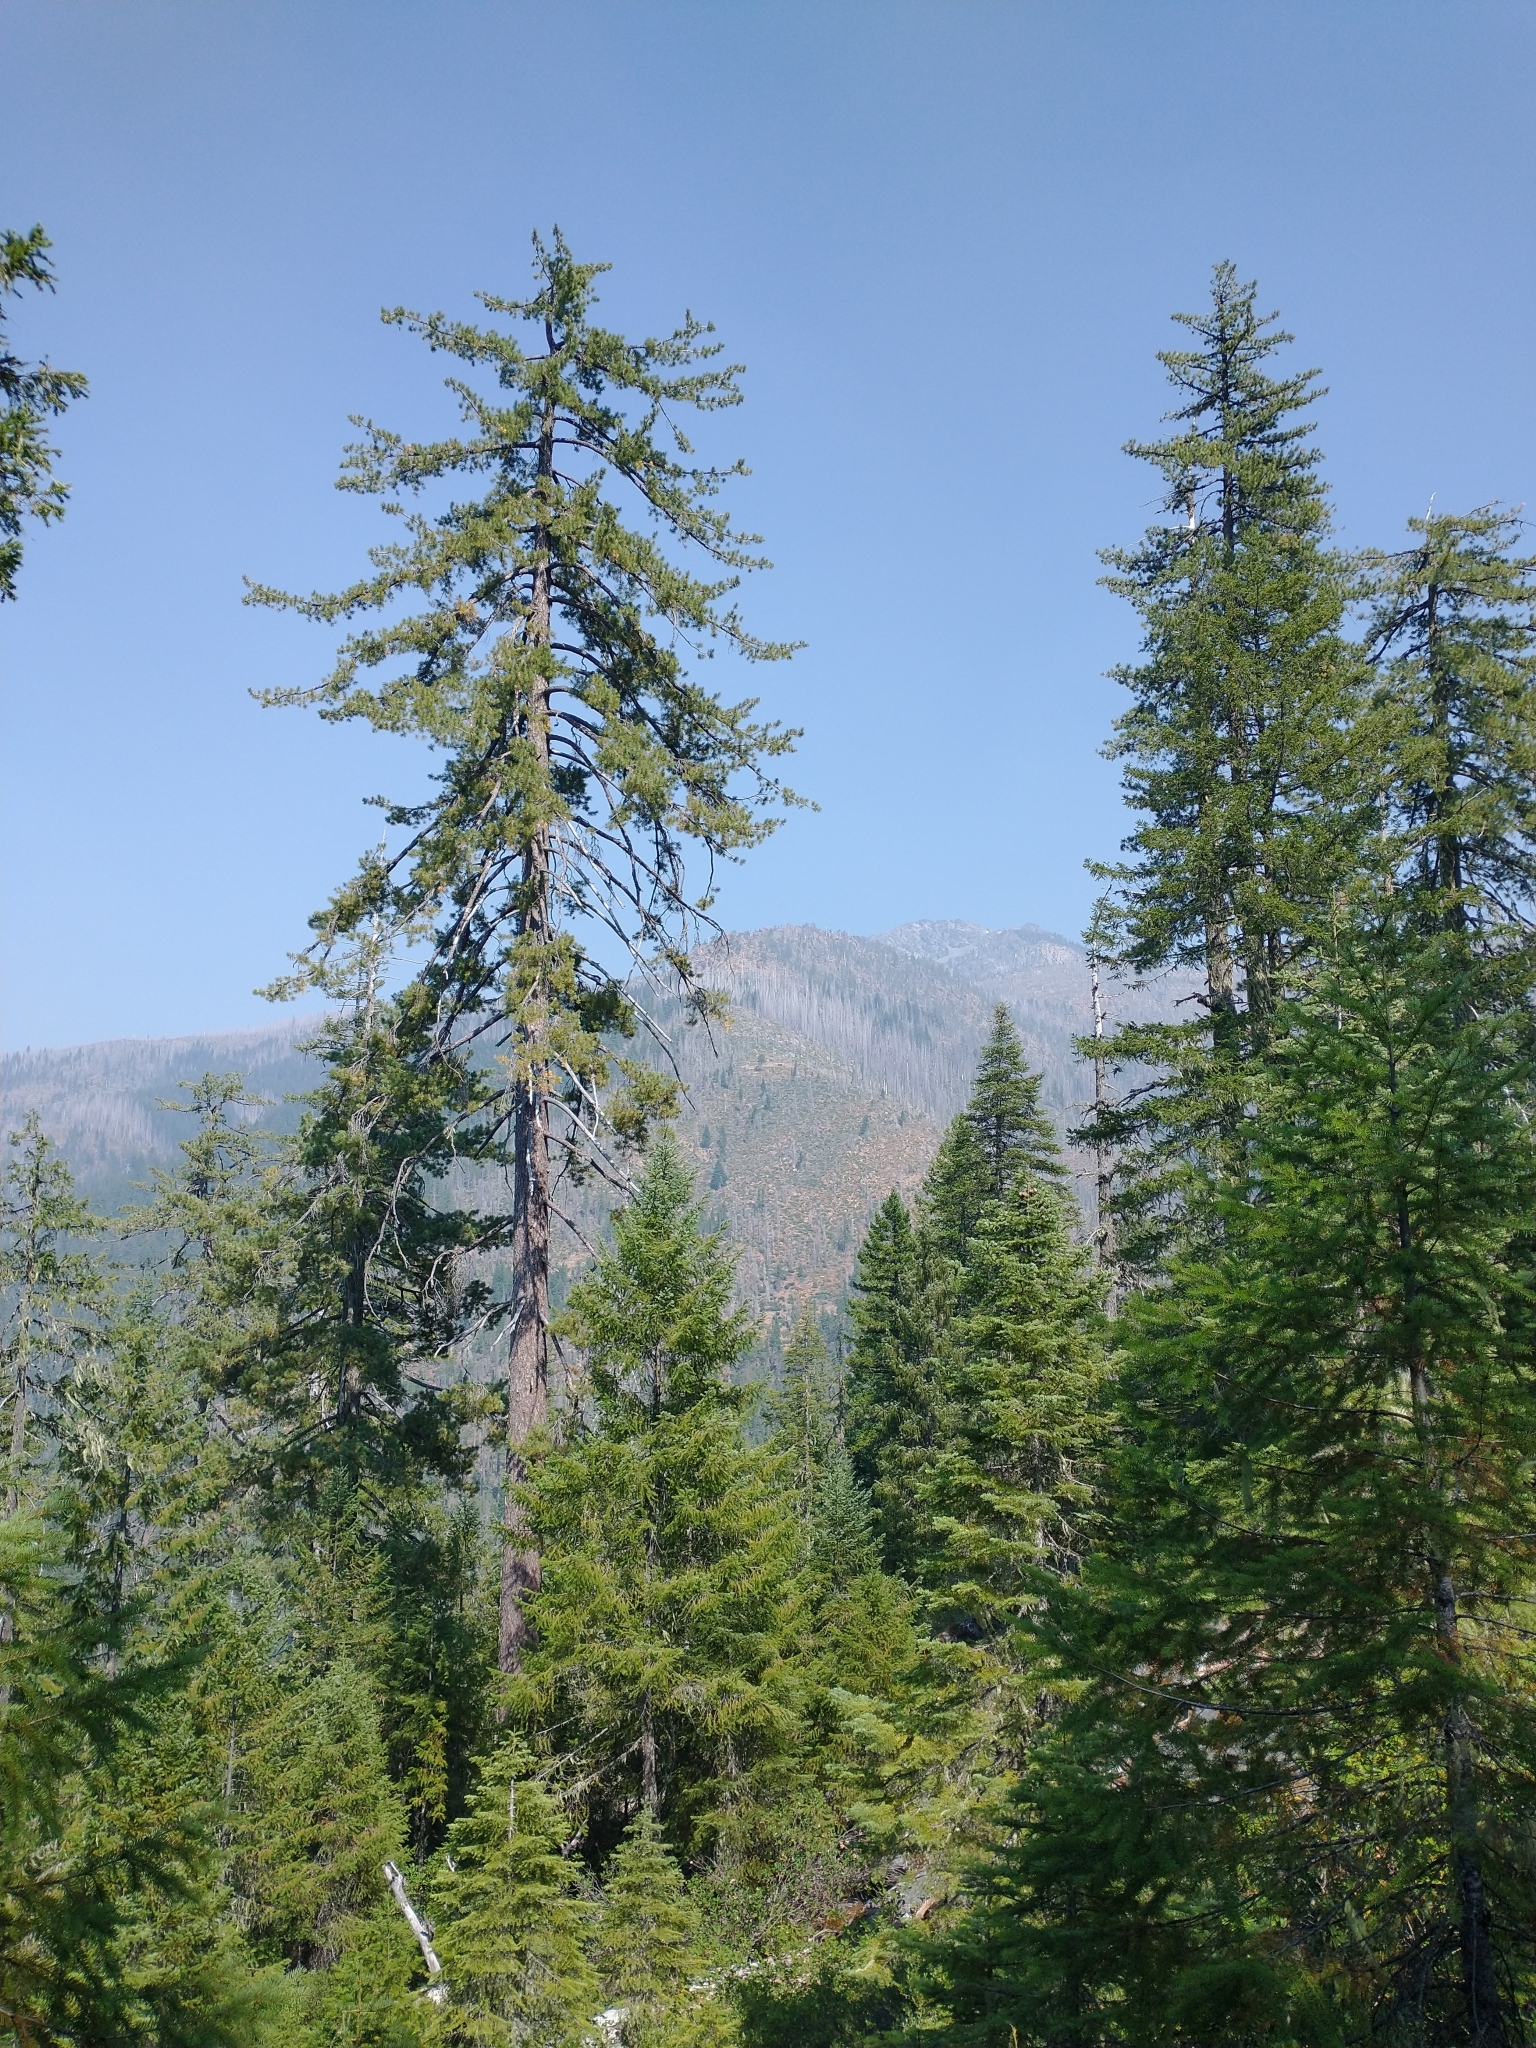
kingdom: Plantae
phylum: Tracheophyta
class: Pinopsida
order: Pinales
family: Pinaceae
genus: Pinus
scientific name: Pinus lambertiana
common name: Sugar pine
